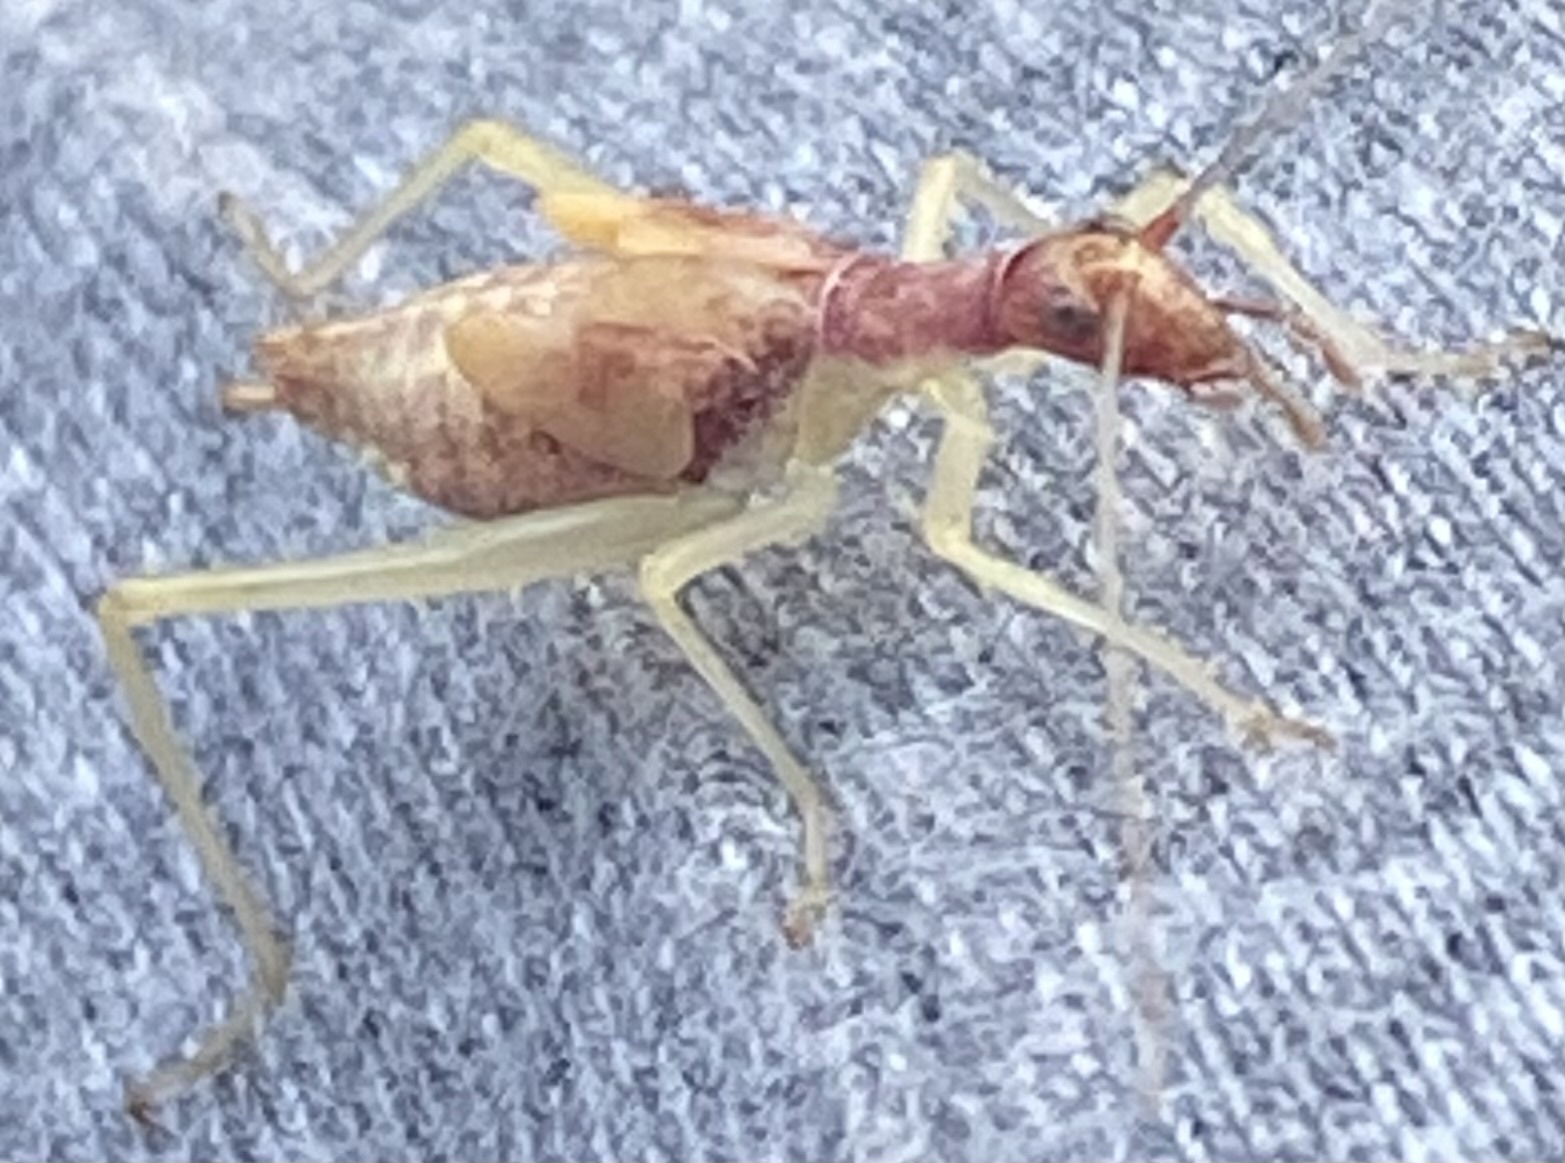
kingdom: Animalia
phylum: Arthropoda
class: Insecta
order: Orthoptera
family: Gryllidae
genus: Neoxabea
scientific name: Neoxabea bipunctata
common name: Two-spotted tree cricket
